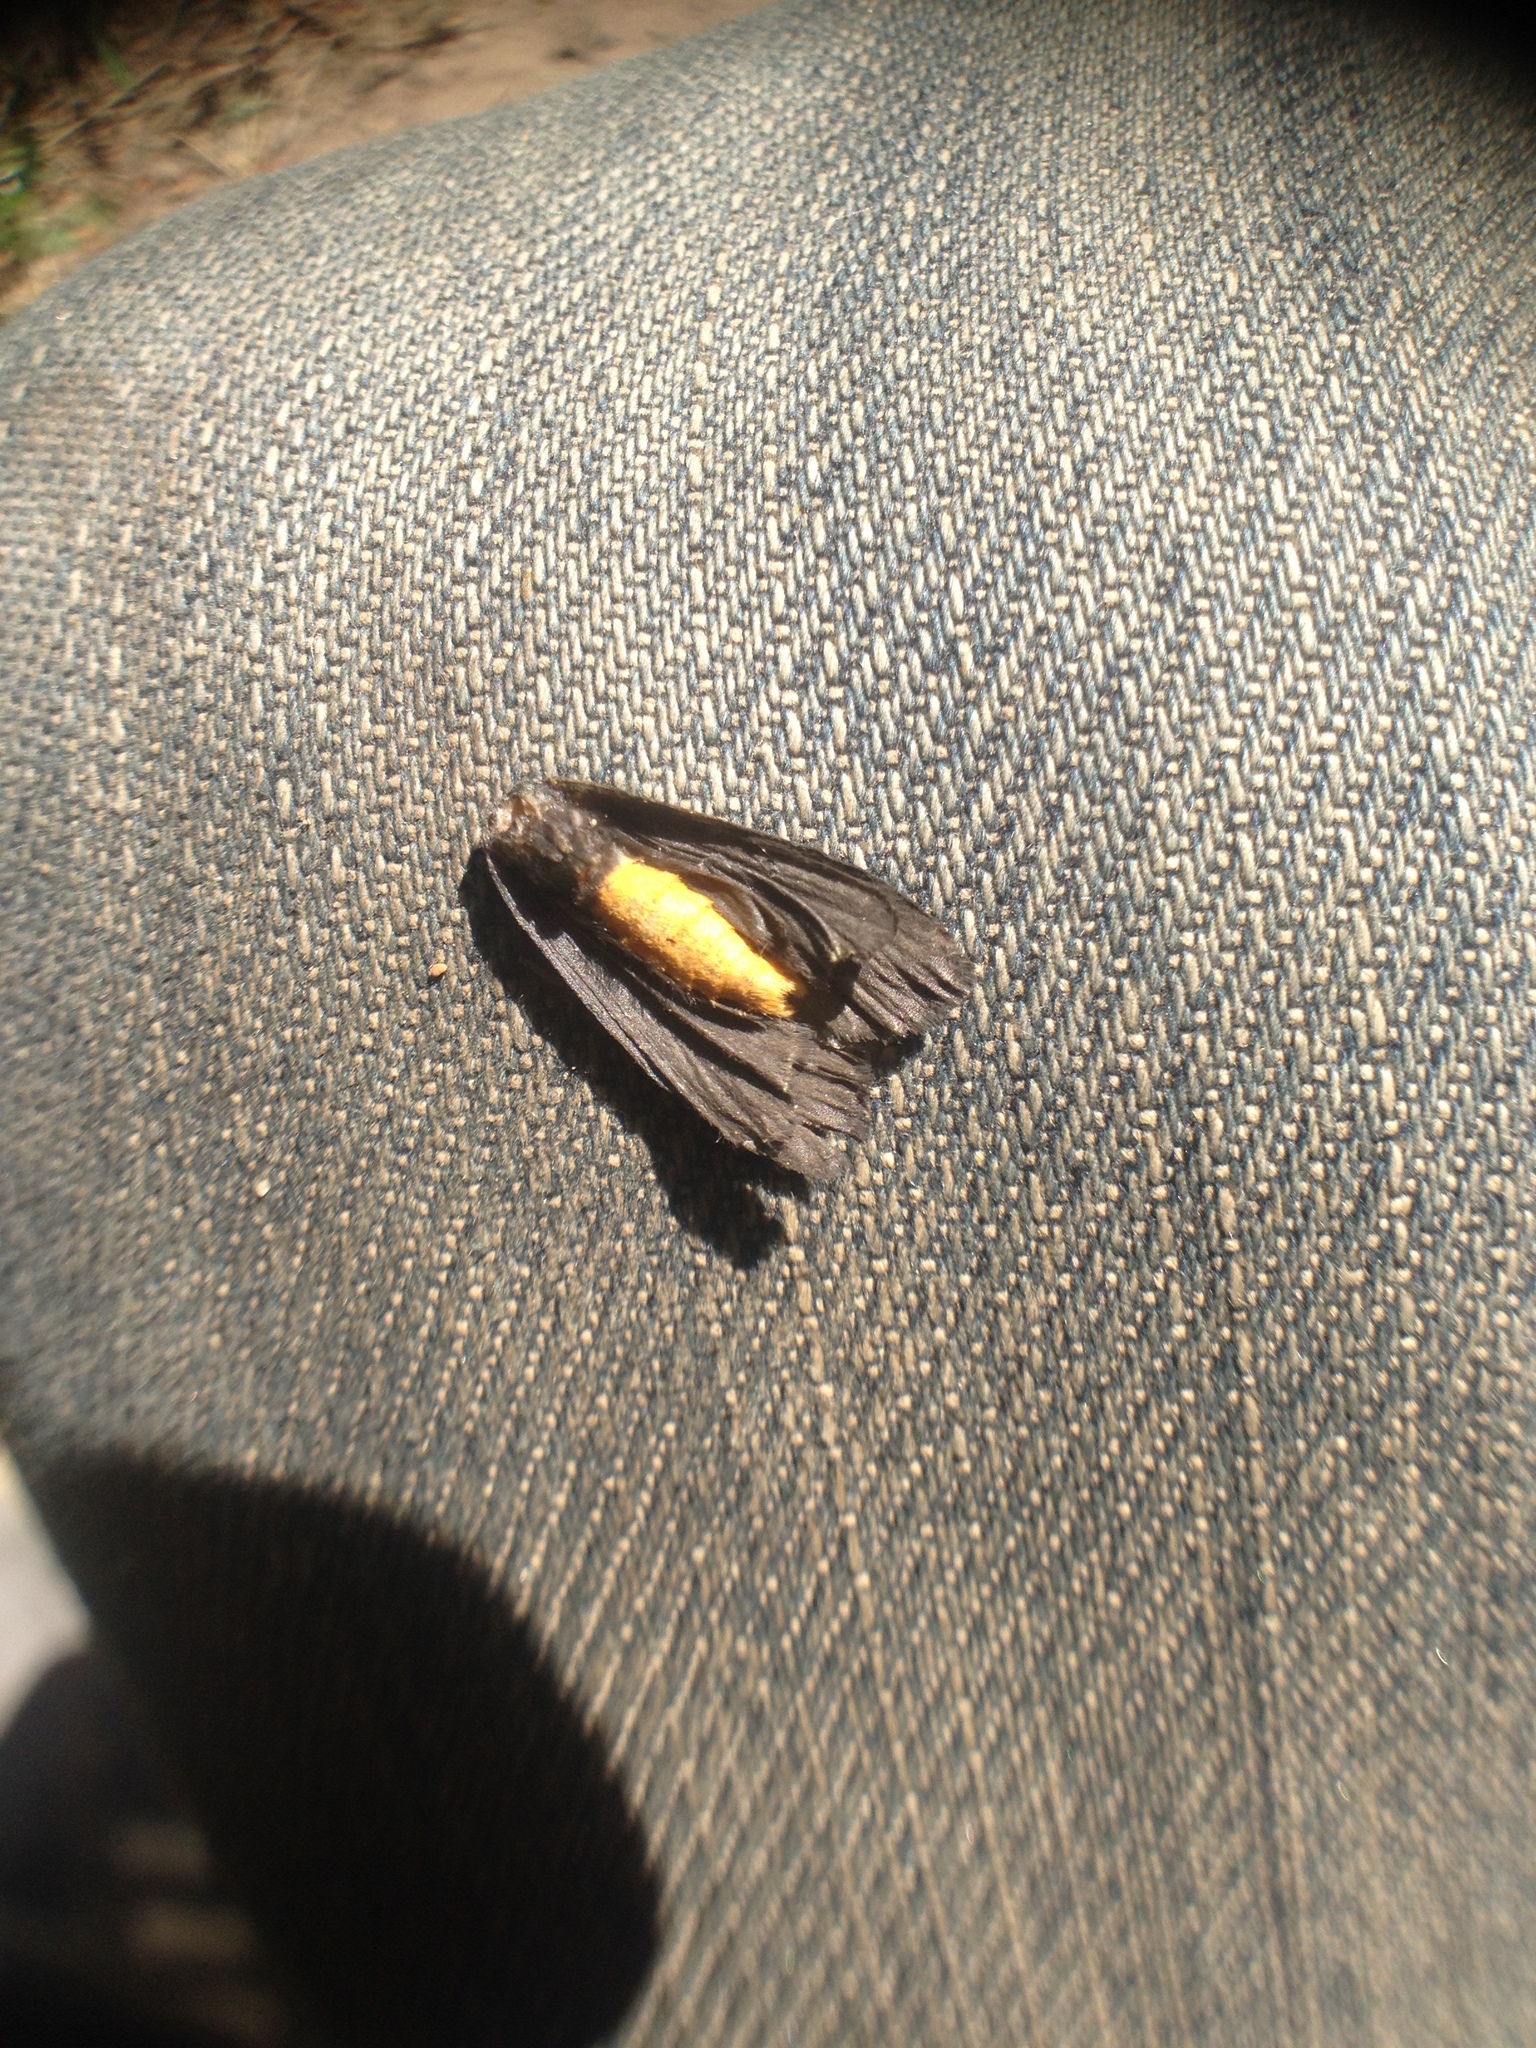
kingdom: Animalia
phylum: Arthropoda
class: Insecta
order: Lepidoptera
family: Erebidae
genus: Atolmis
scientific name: Atolmis rubricollis
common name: Red-necked footman
